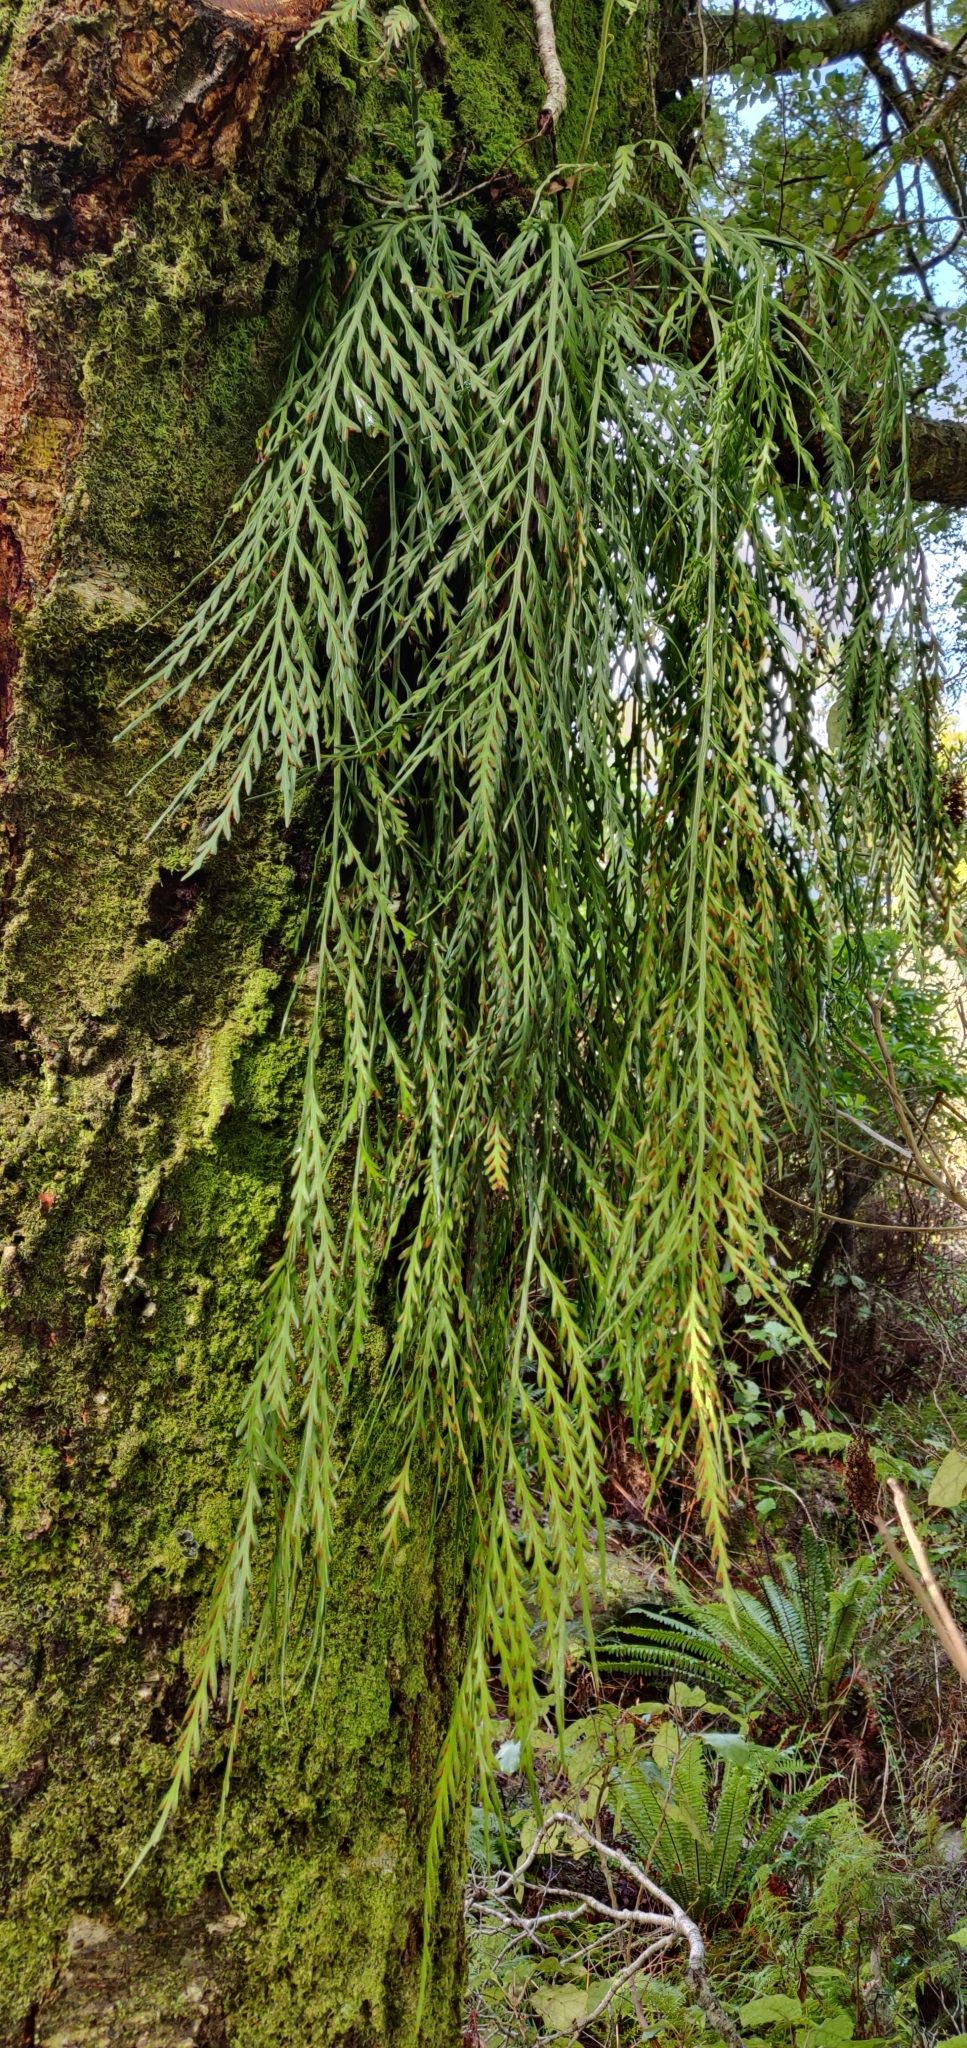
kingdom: Plantae
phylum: Tracheophyta
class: Polypodiopsida
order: Polypodiales
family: Aspleniaceae
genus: Asplenium
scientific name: Asplenium flaccidum
